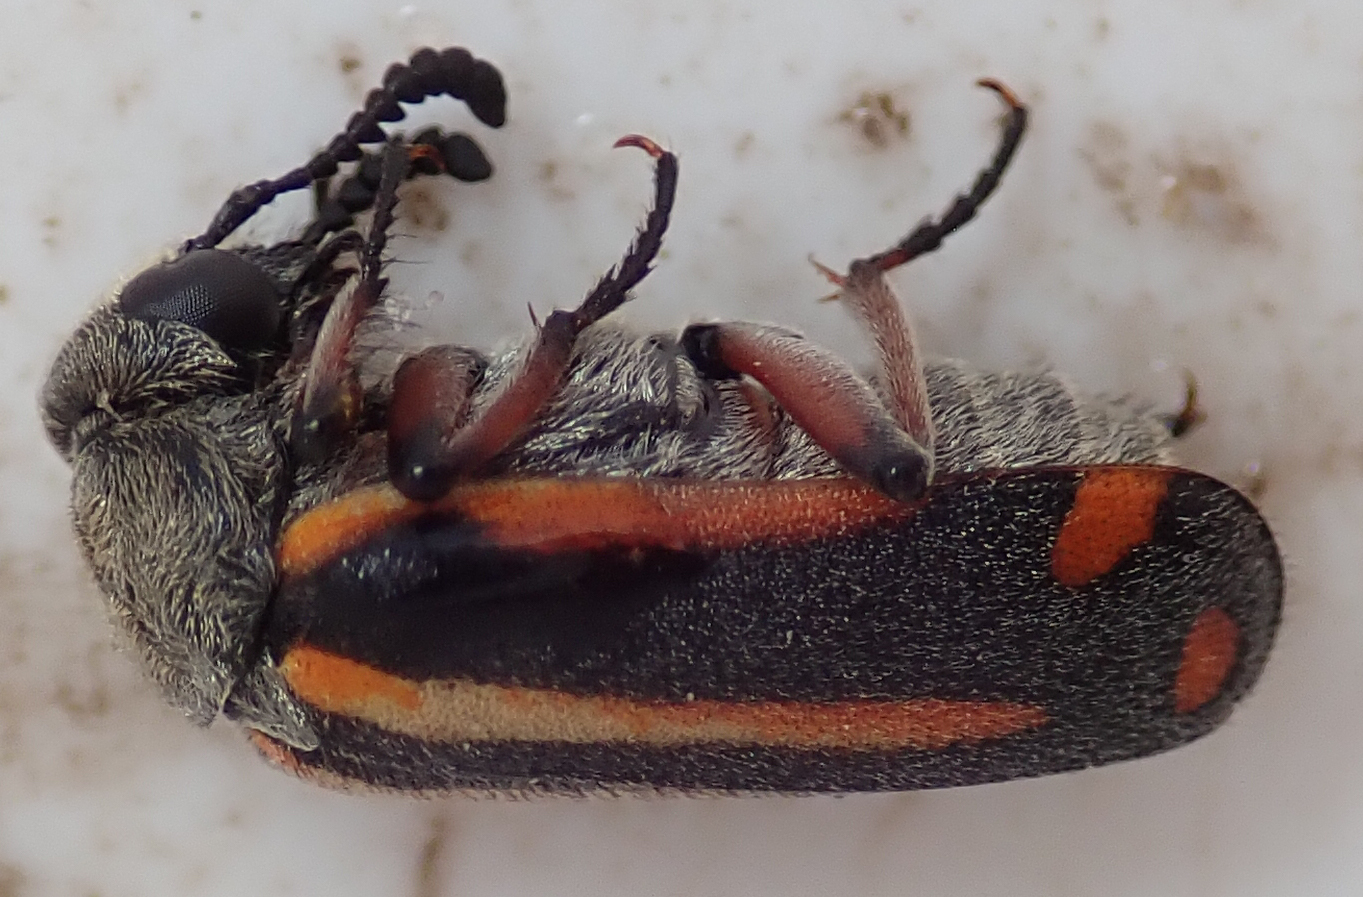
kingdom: Animalia
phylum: Arthropoda
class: Insecta
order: Coleoptera
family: Meloidae
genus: Ceroctis
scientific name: Ceroctis angolensis
